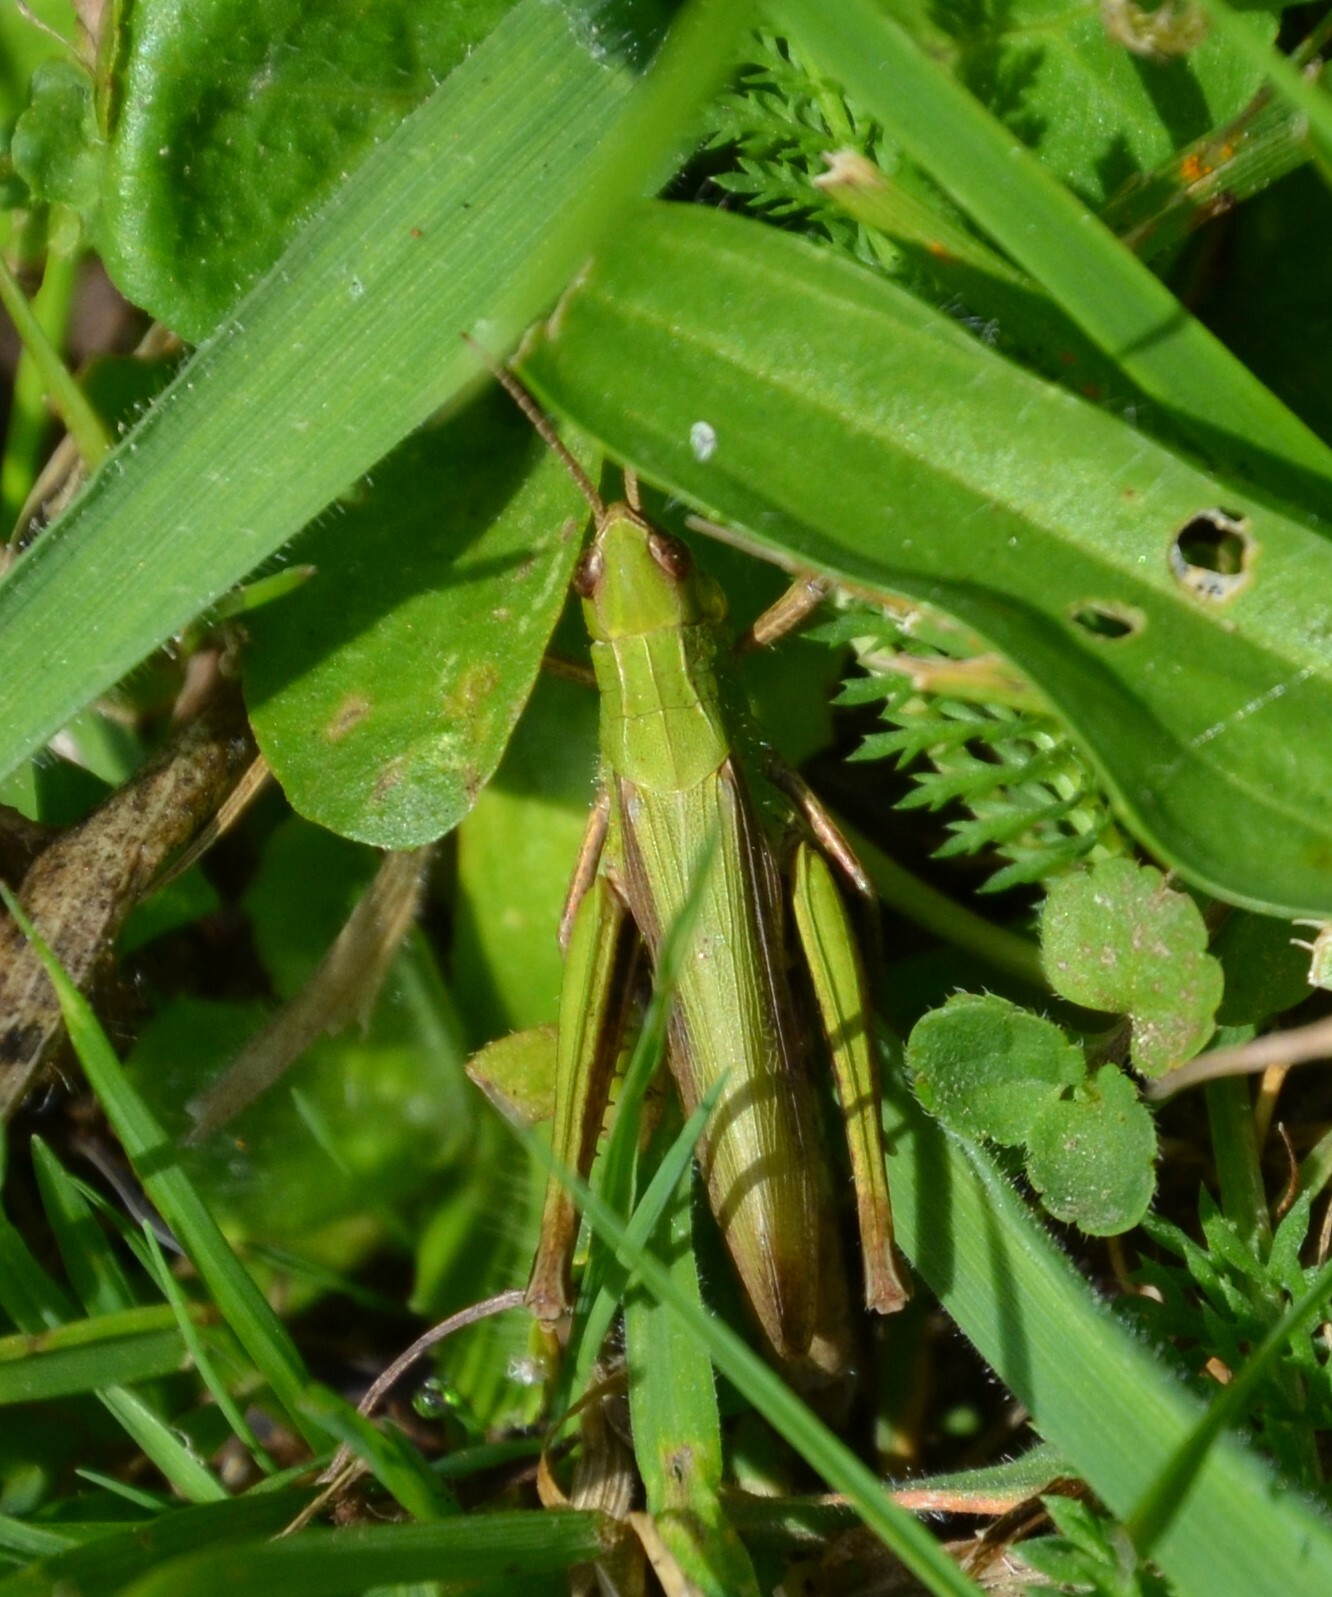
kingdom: Animalia
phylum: Arthropoda
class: Insecta
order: Orthoptera
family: Acrididae
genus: Chorthippus
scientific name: Chorthippus dorsatus
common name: Steppe grasshopper
